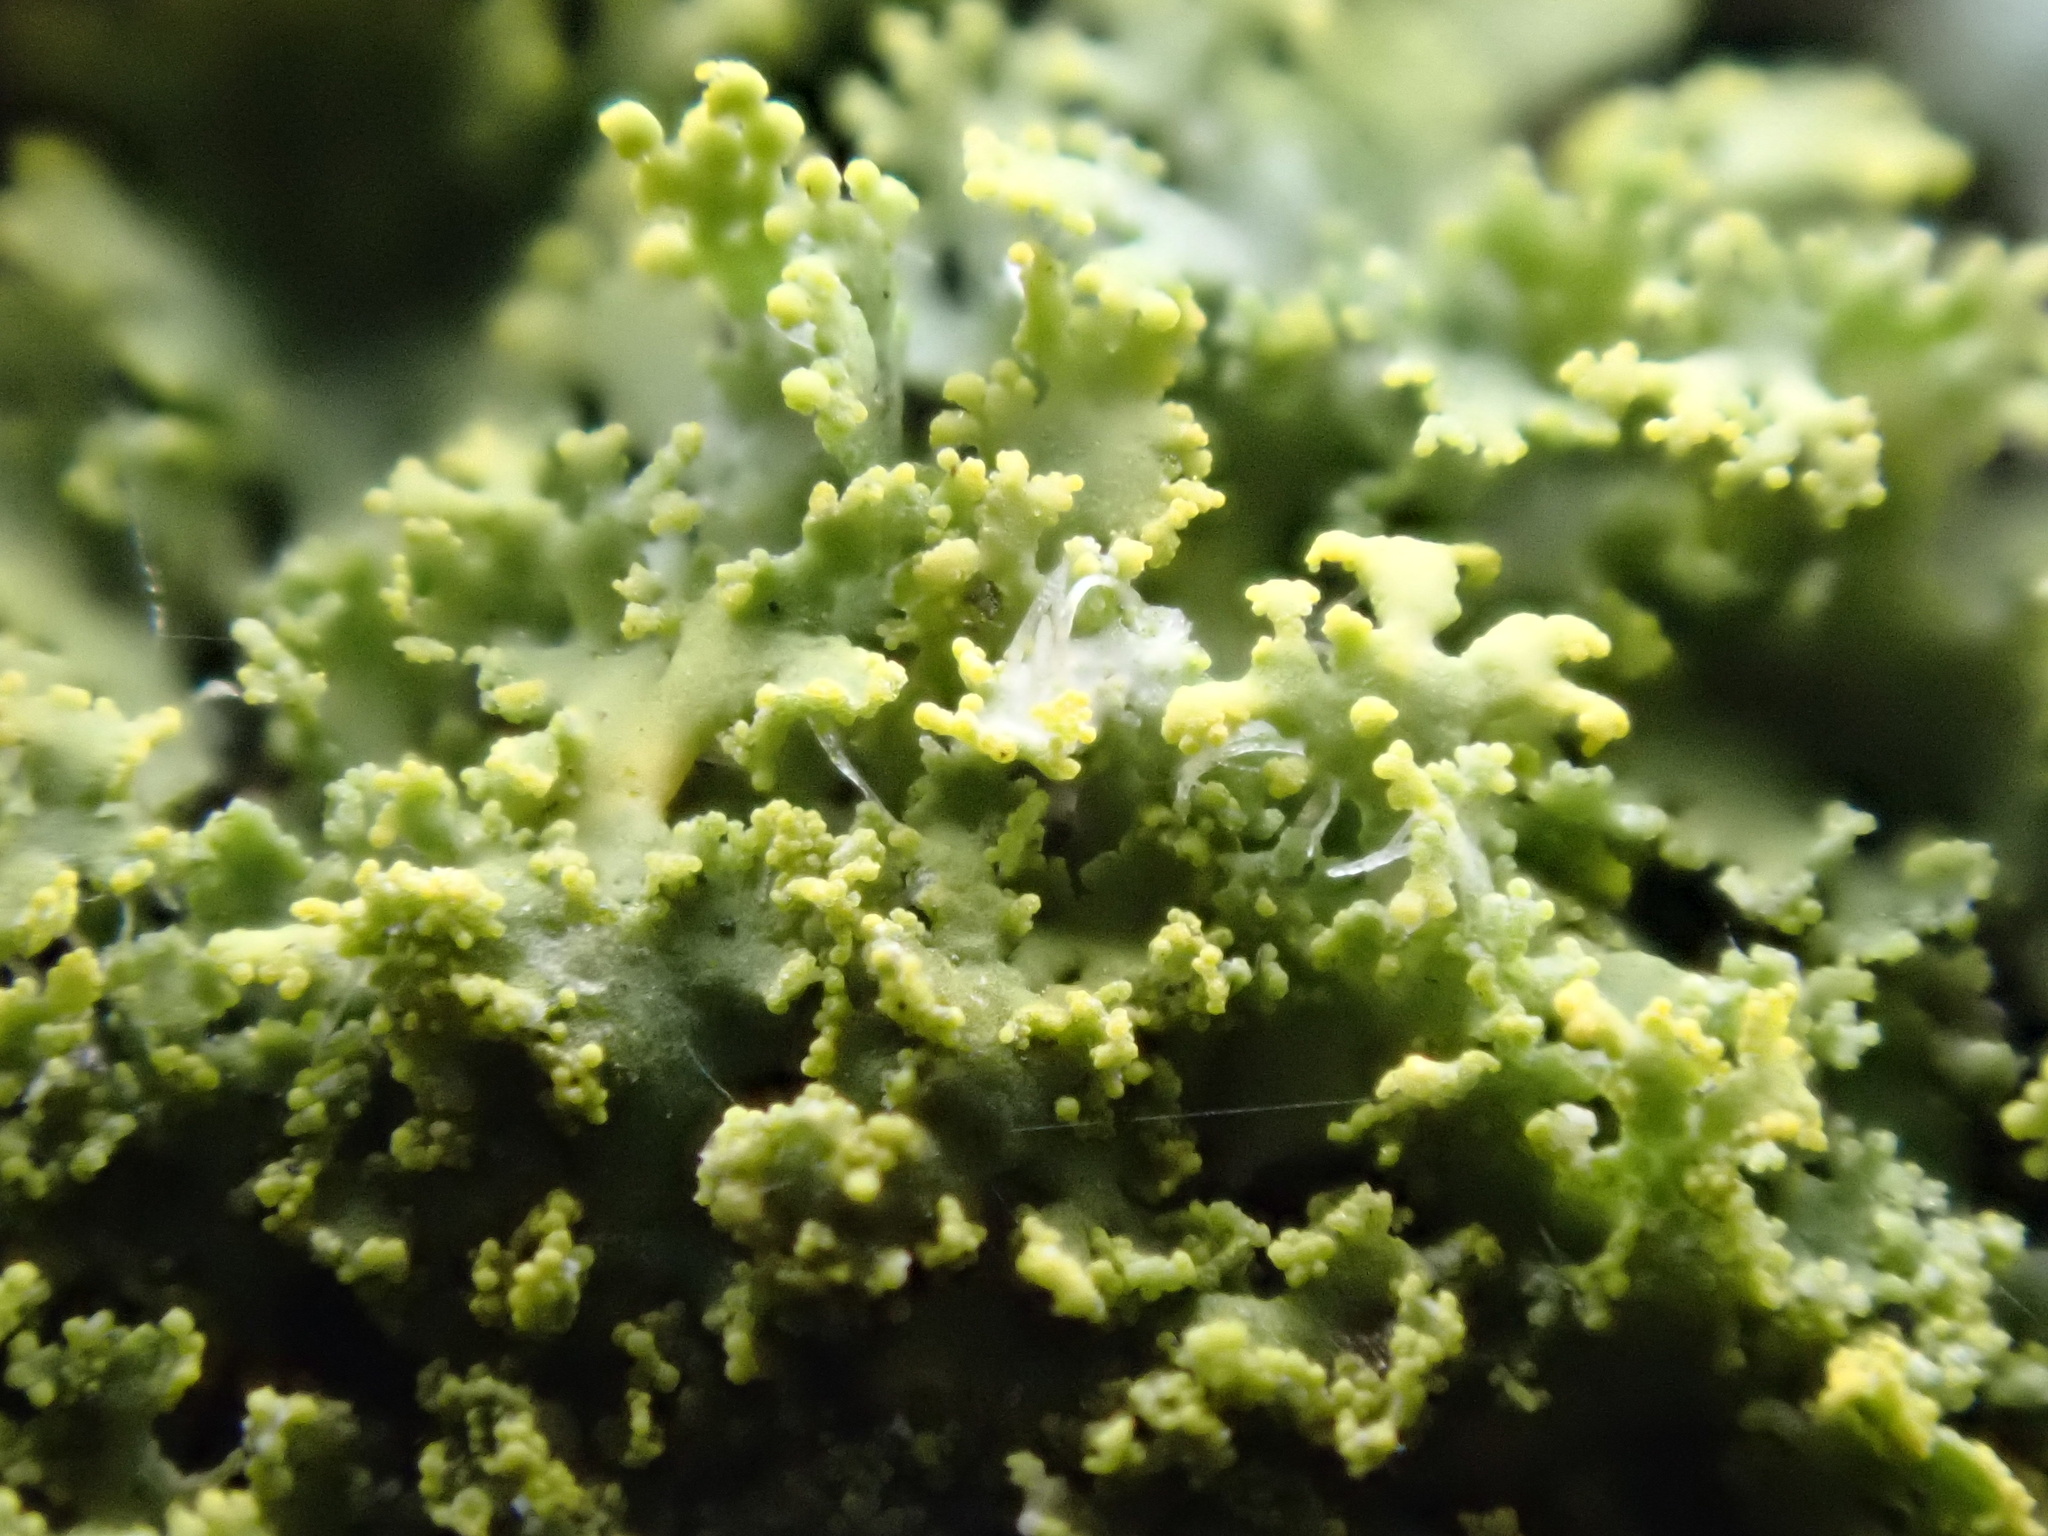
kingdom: Fungi
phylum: Ascomycota
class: Candelariomycetes
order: Candelariales
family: Candelariaceae
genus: Candelaria
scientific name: Candelaria concolor
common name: Candleflame lichen
